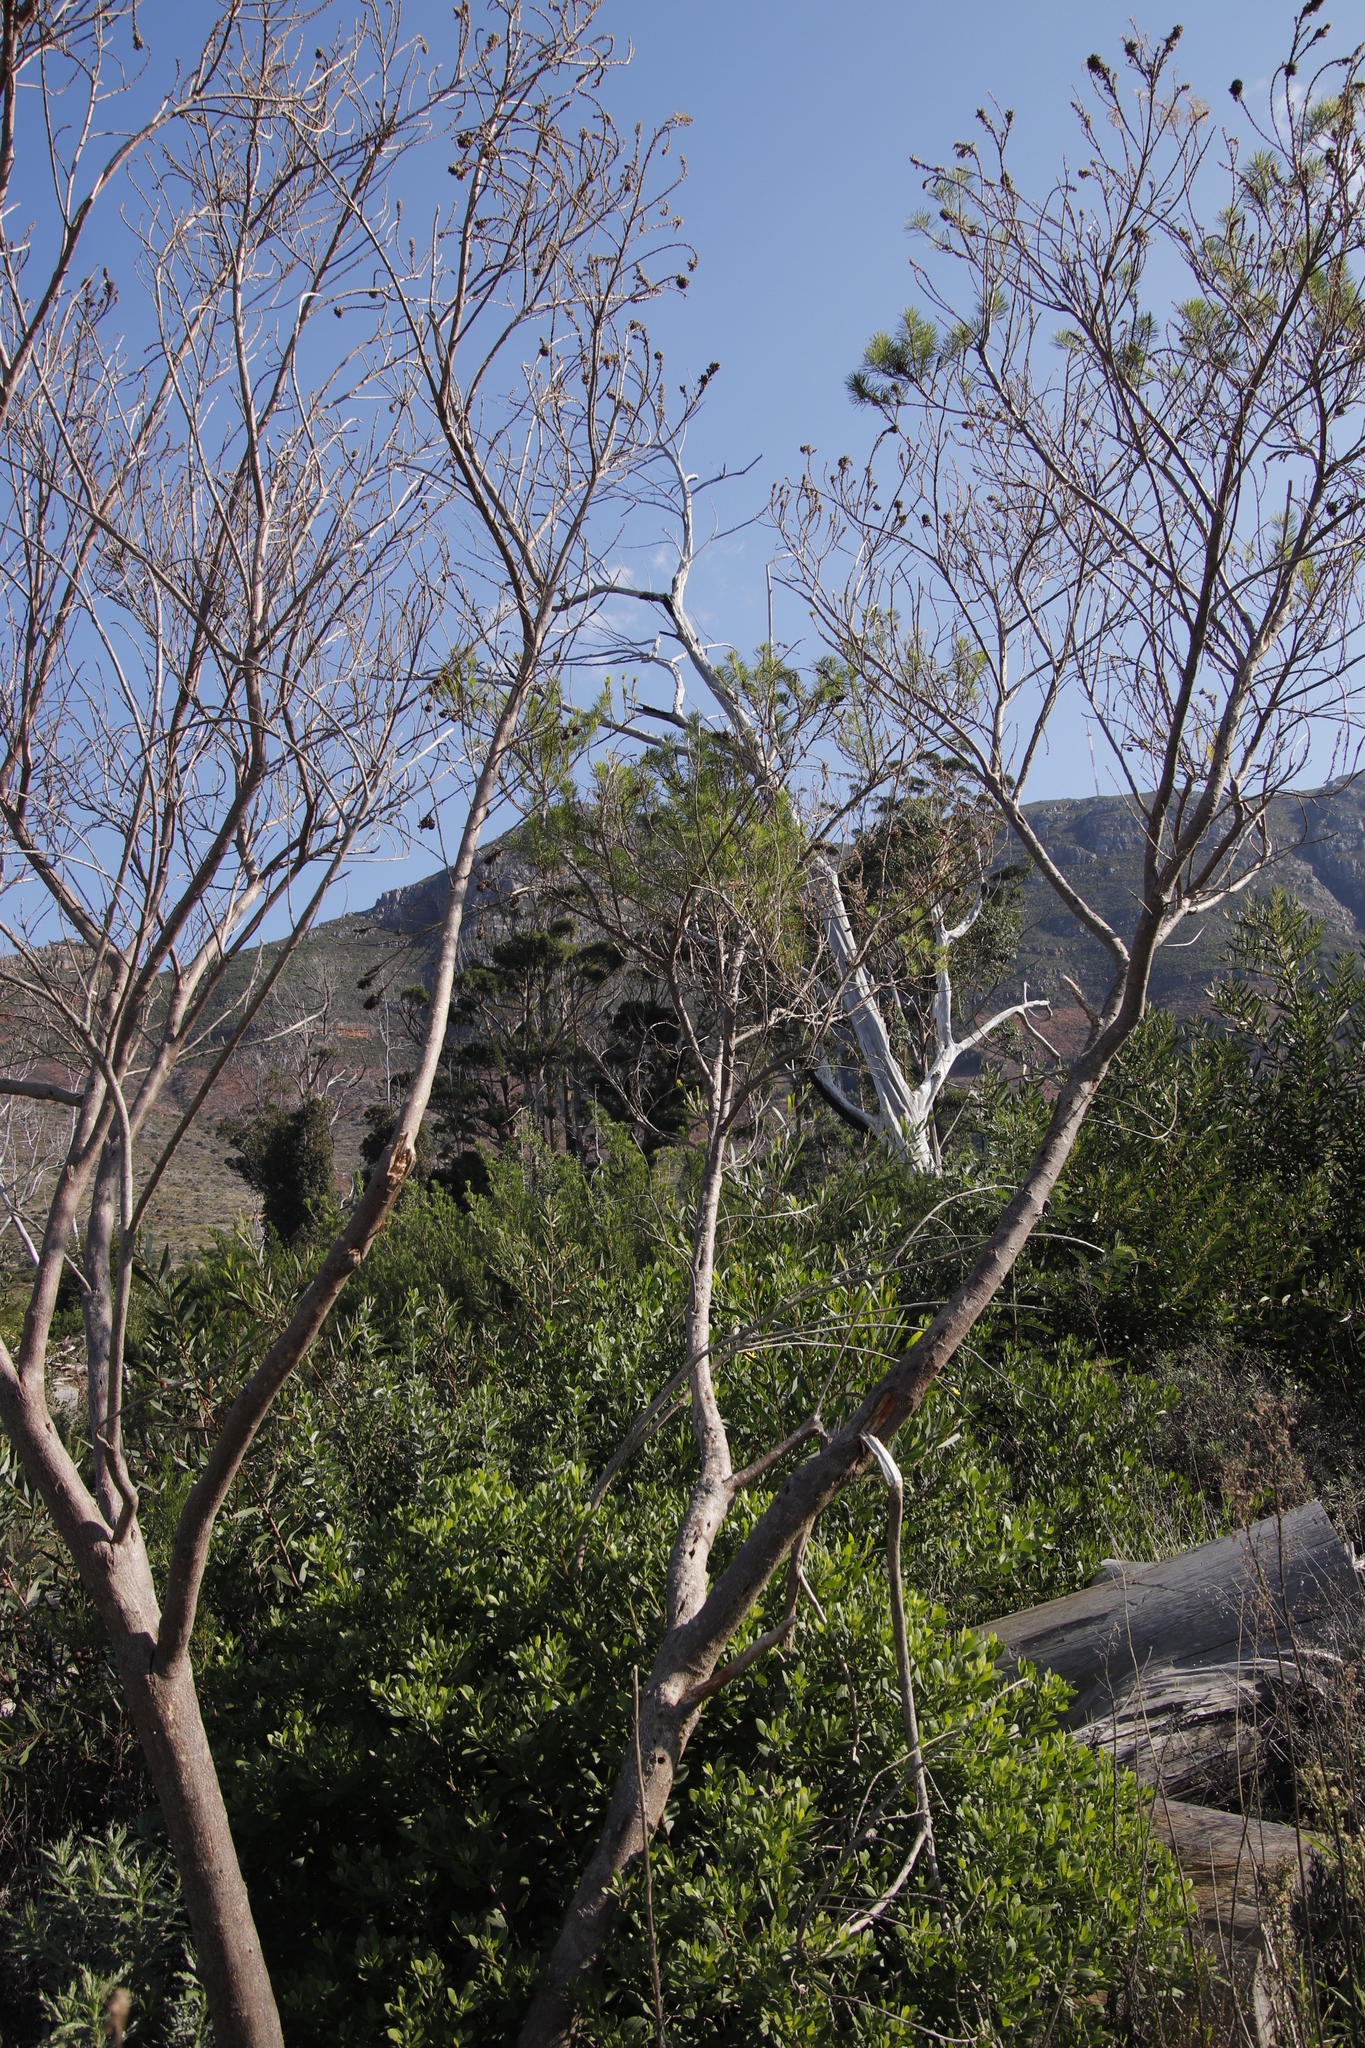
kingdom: Plantae
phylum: Tracheophyta
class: Magnoliopsida
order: Fabales
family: Fabaceae
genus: Psoralea
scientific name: Psoralea pinnata
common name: African scurfpea
